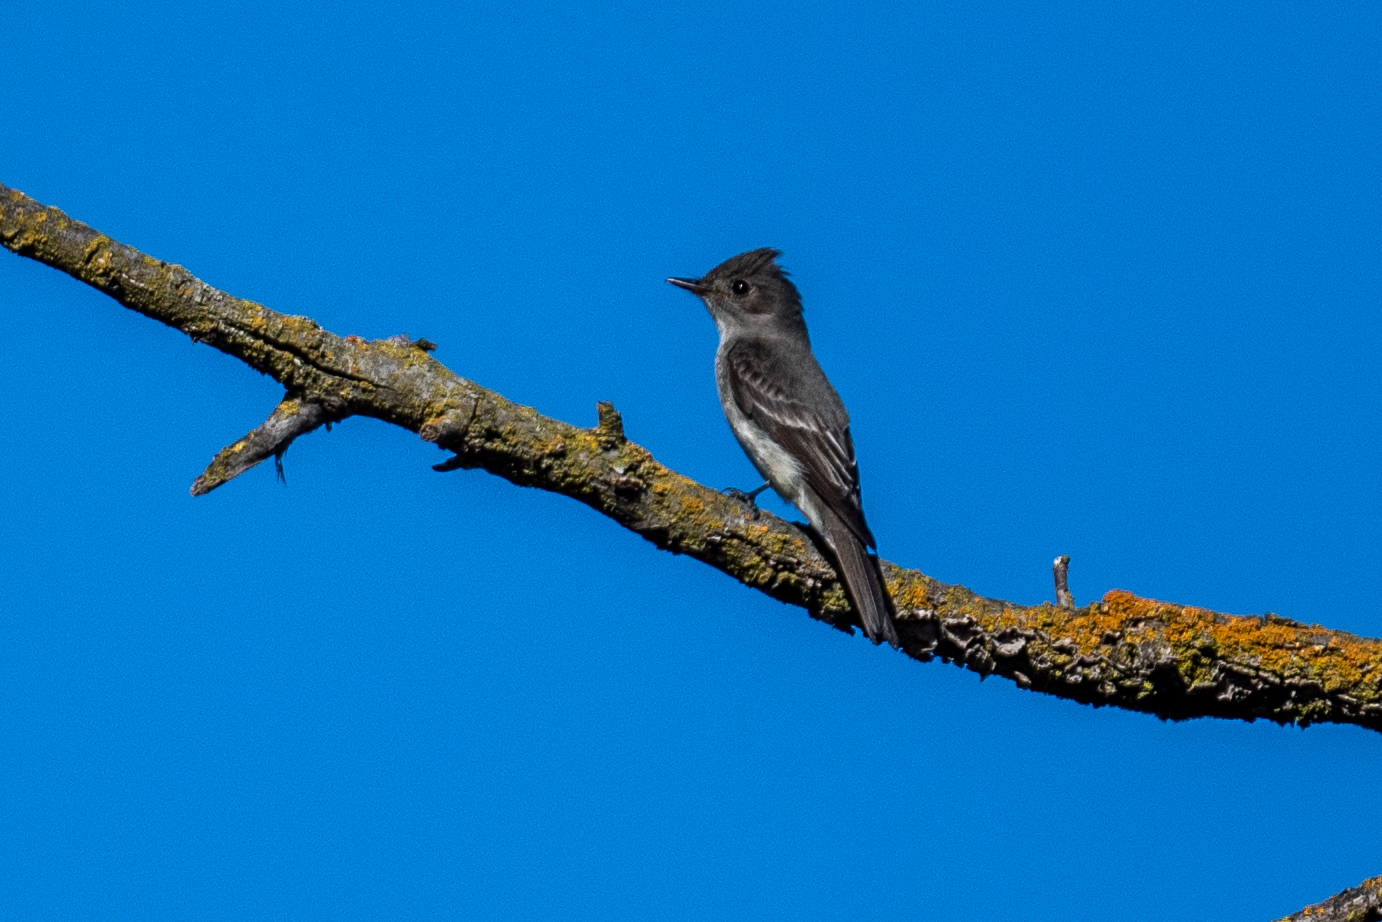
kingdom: Animalia
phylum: Chordata
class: Aves
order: Passeriformes
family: Tyrannidae
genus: Contopus
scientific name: Contopus cooperi
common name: Olive-sided flycatcher
